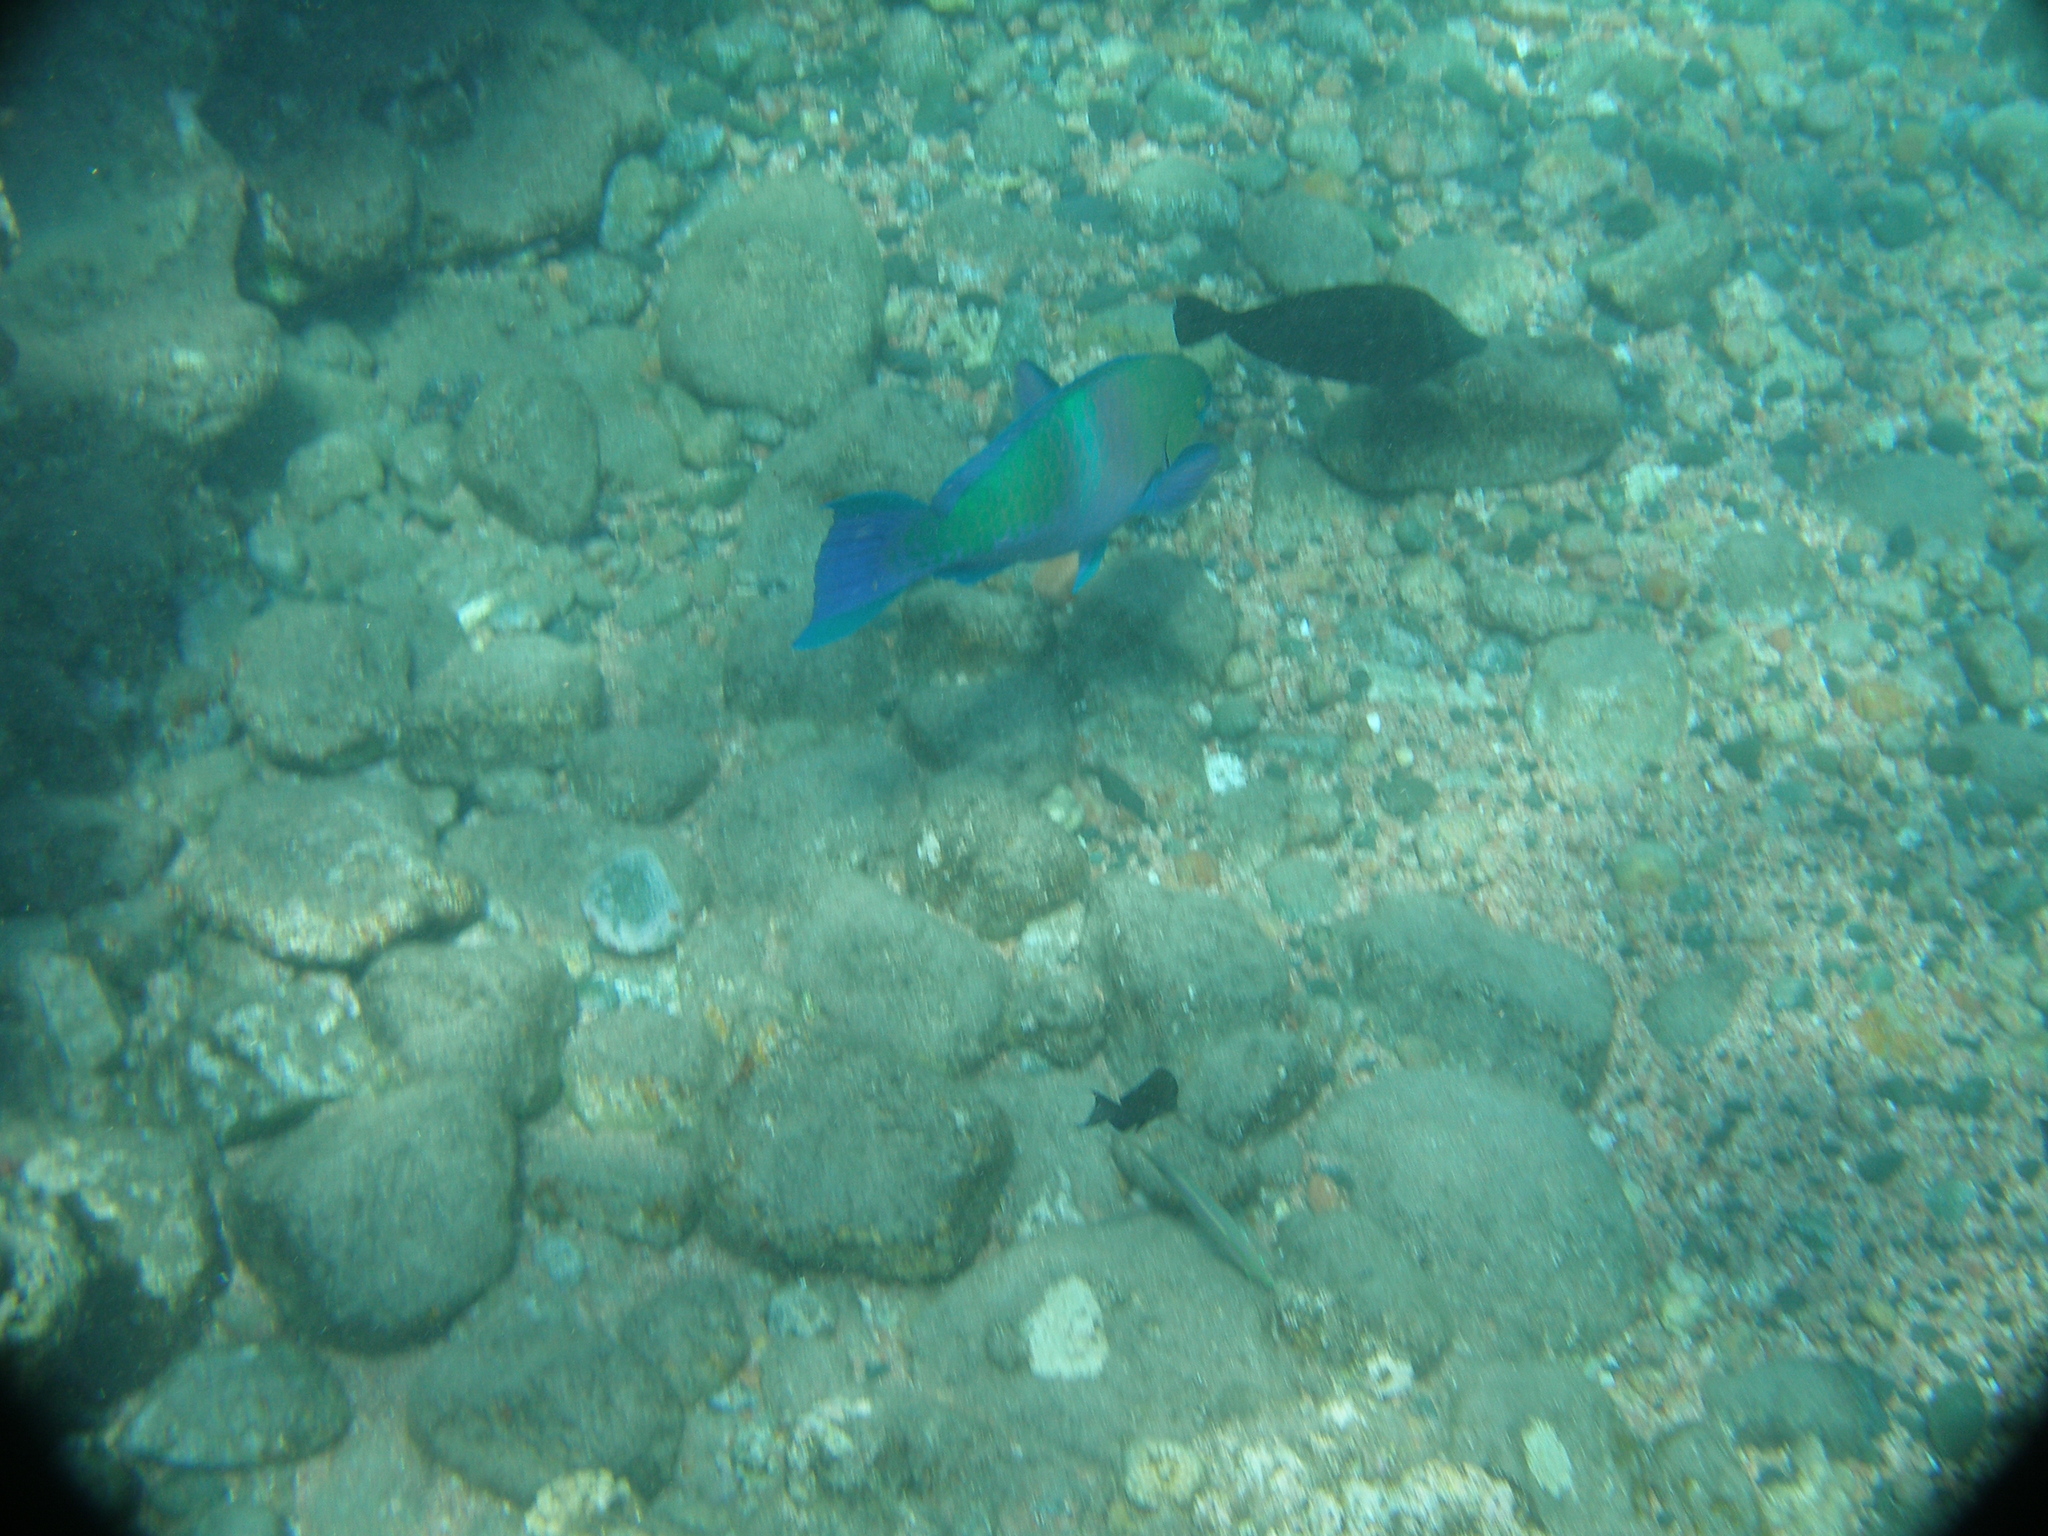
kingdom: Animalia
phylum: Chordata
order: Perciformes
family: Scaridae
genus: Scarus
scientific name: Scarus ferrugineus
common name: Rusty parrotfish
